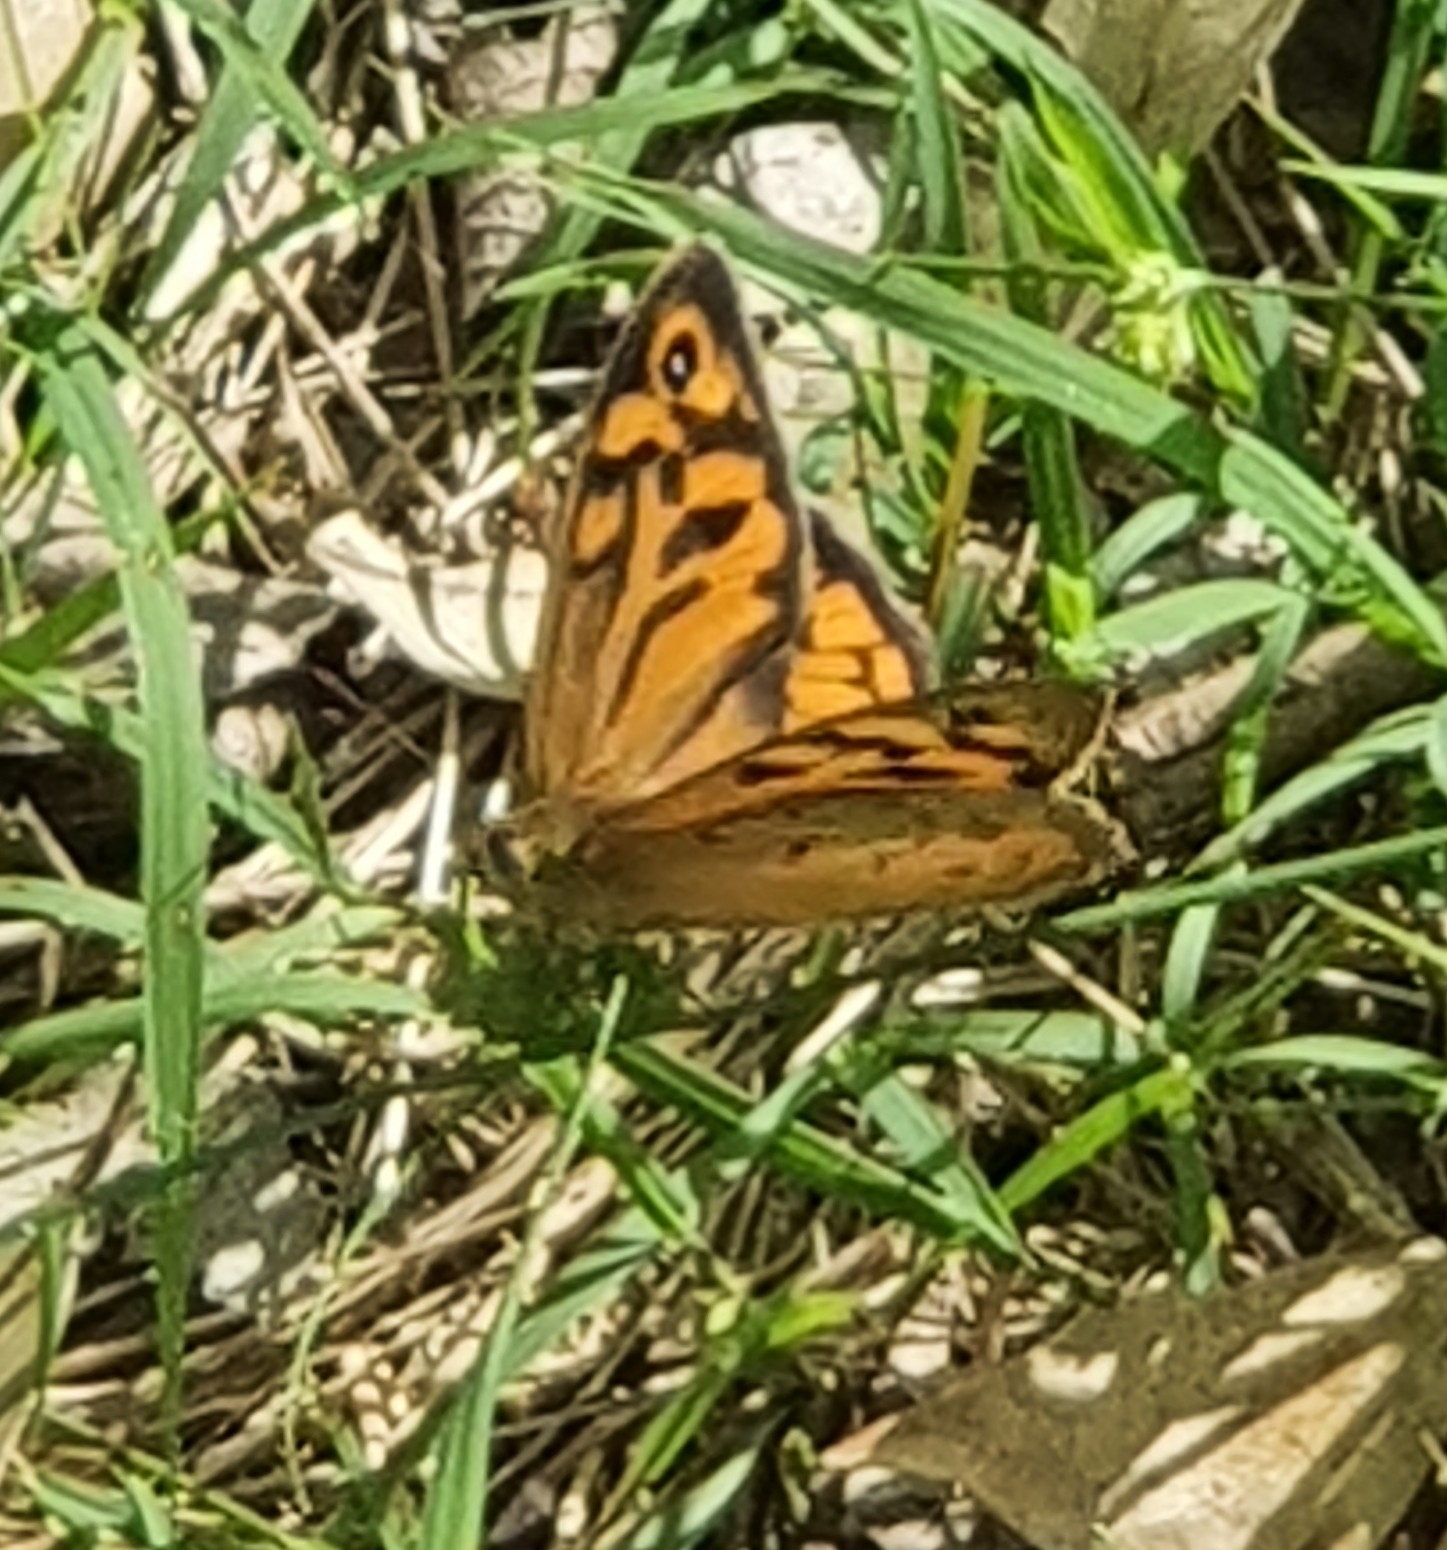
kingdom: Animalia
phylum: Arthropoda
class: Insecta
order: Lepidoptera
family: Nymphalidae
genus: Heteronympha
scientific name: Heteronympha merope
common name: Common brown
